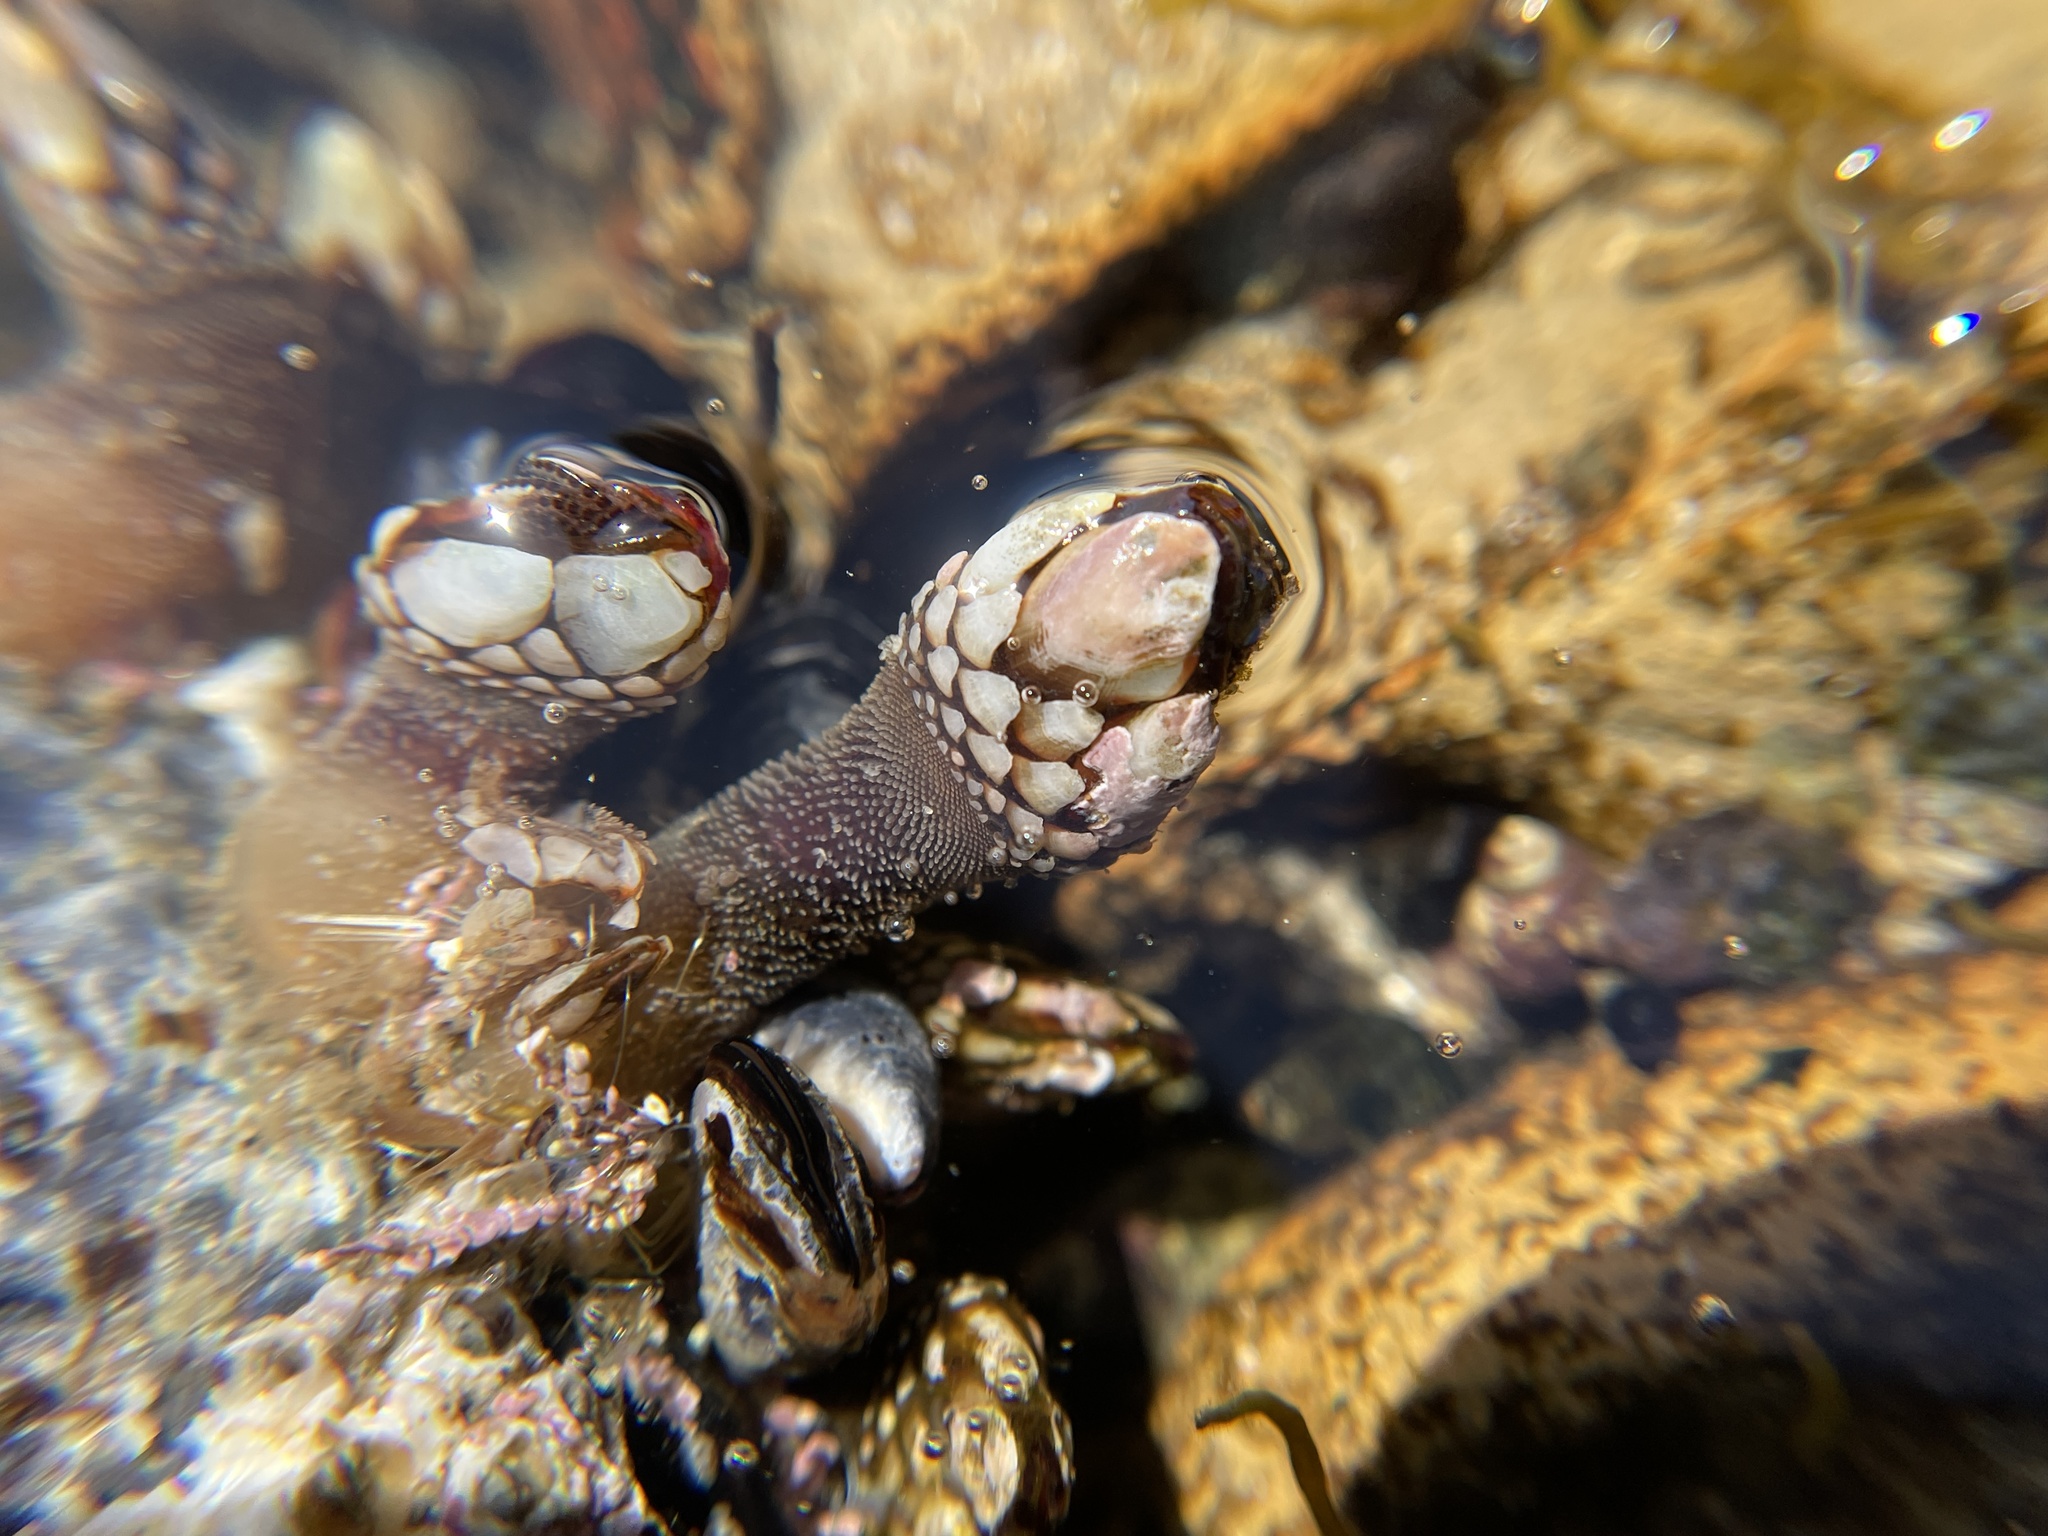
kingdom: Animalia
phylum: Arthropoda
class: Maxillopoda
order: Pedunculata
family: Pollicipedidae
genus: Pollicipes
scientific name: Pollicipes polymerus
